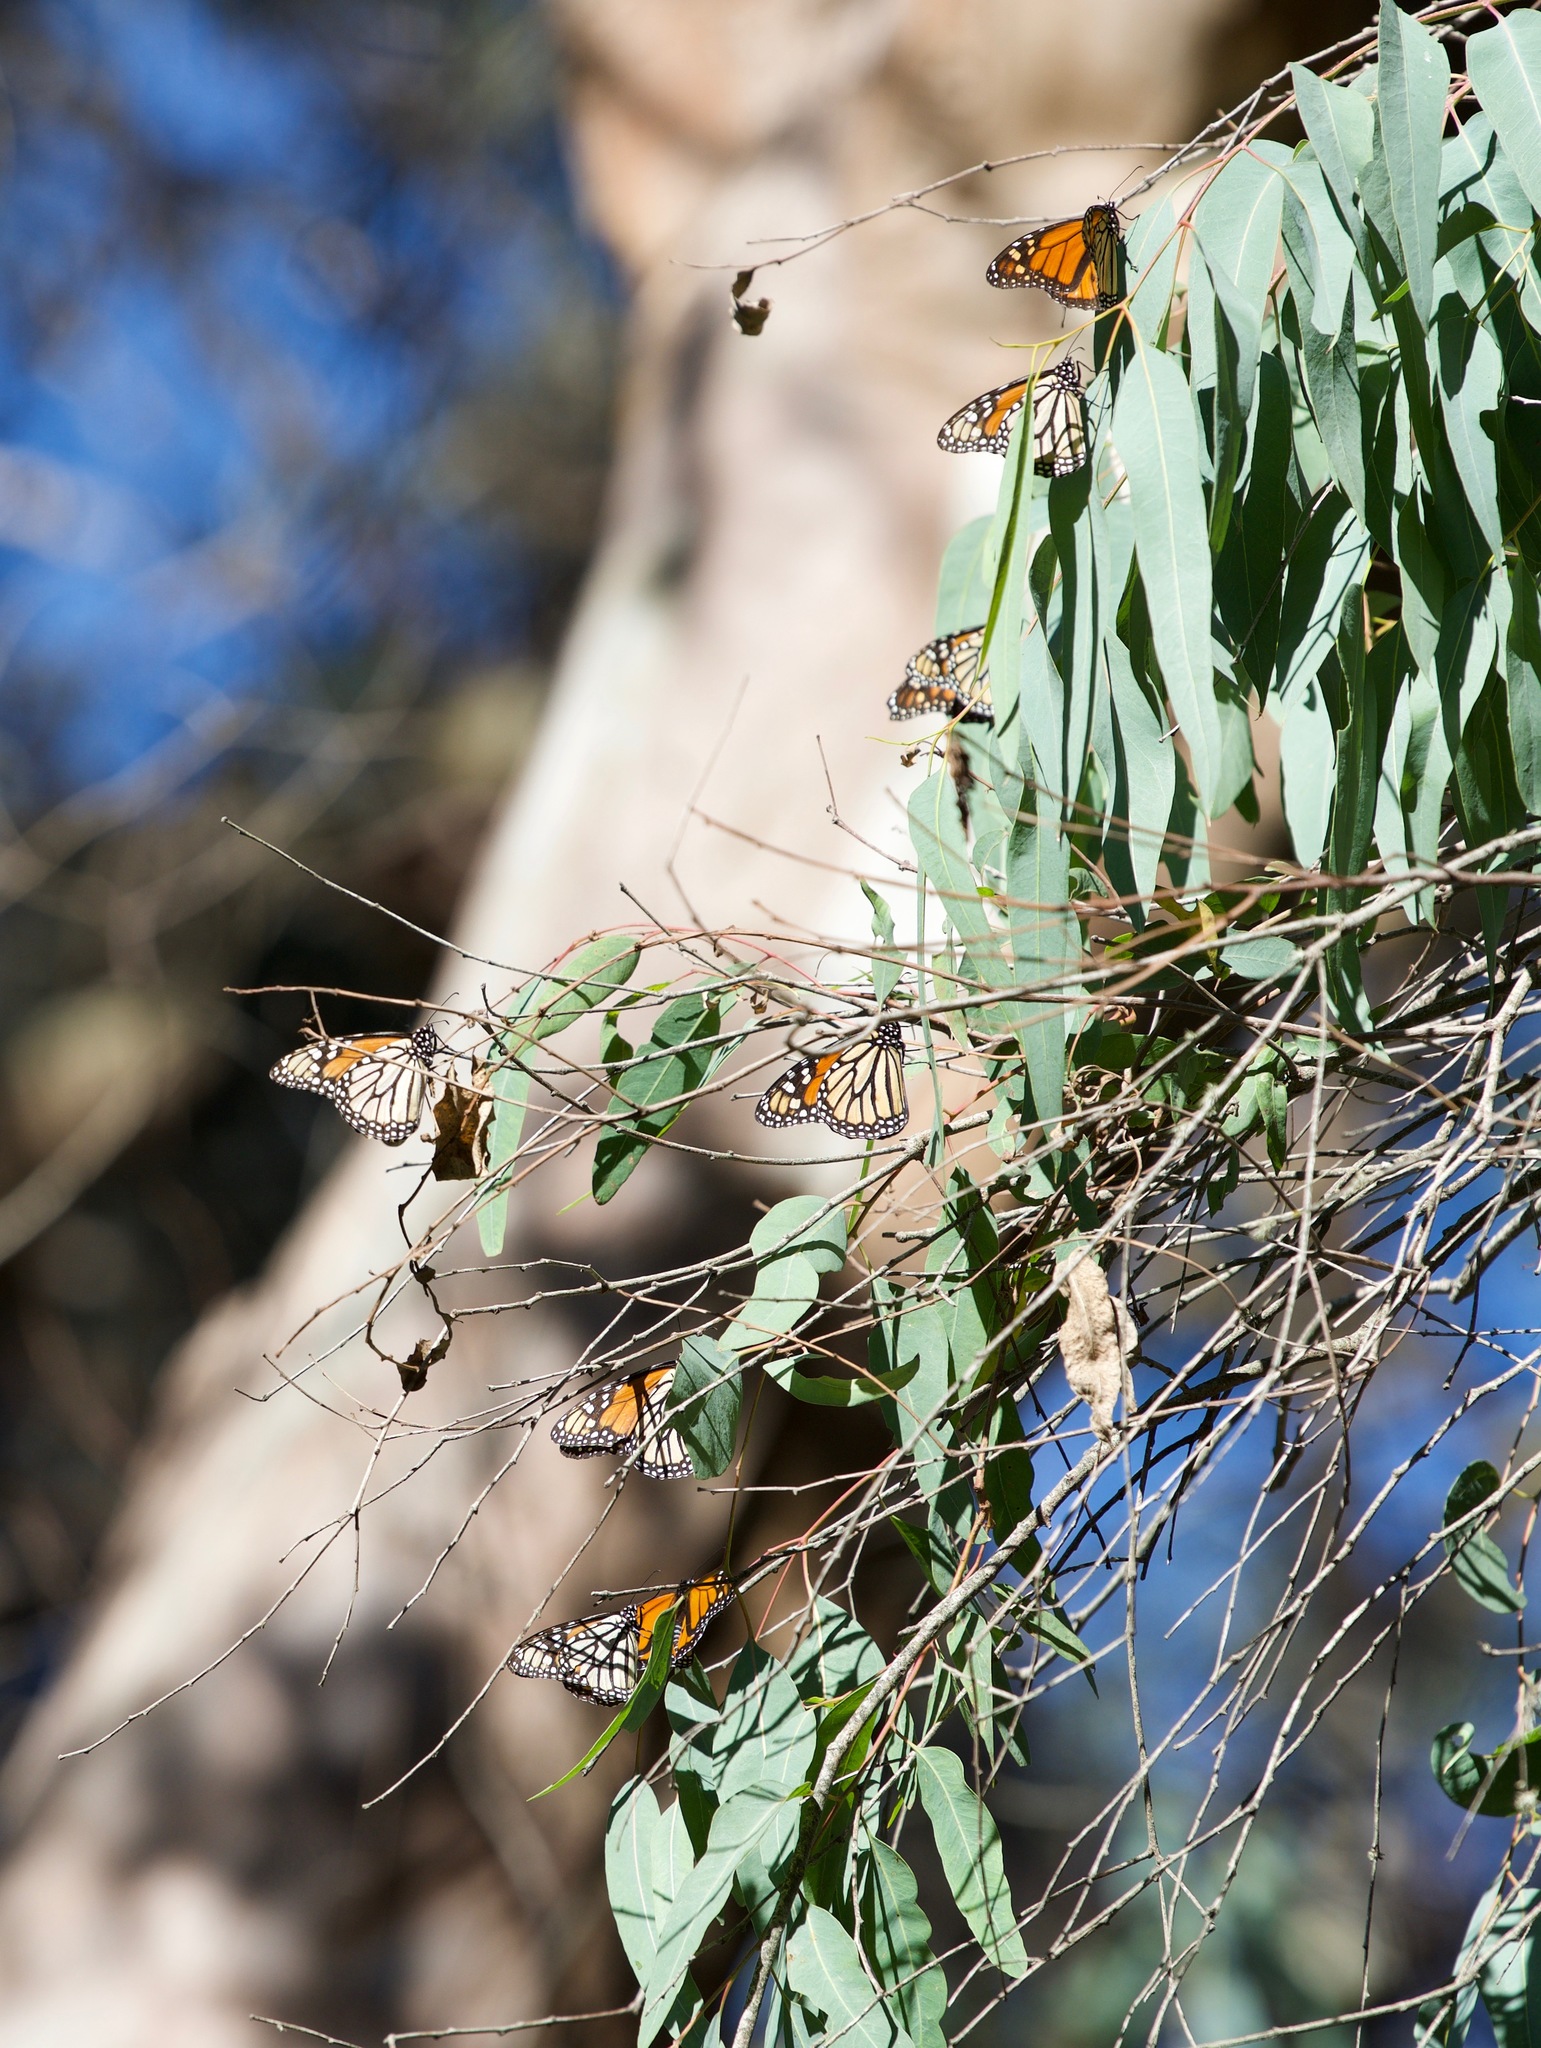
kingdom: Animalia
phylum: Arthropoda
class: Insecta
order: Lepidoptera
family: Nymphalidae
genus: Danaus
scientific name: Danaus plexippus
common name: Monarch
